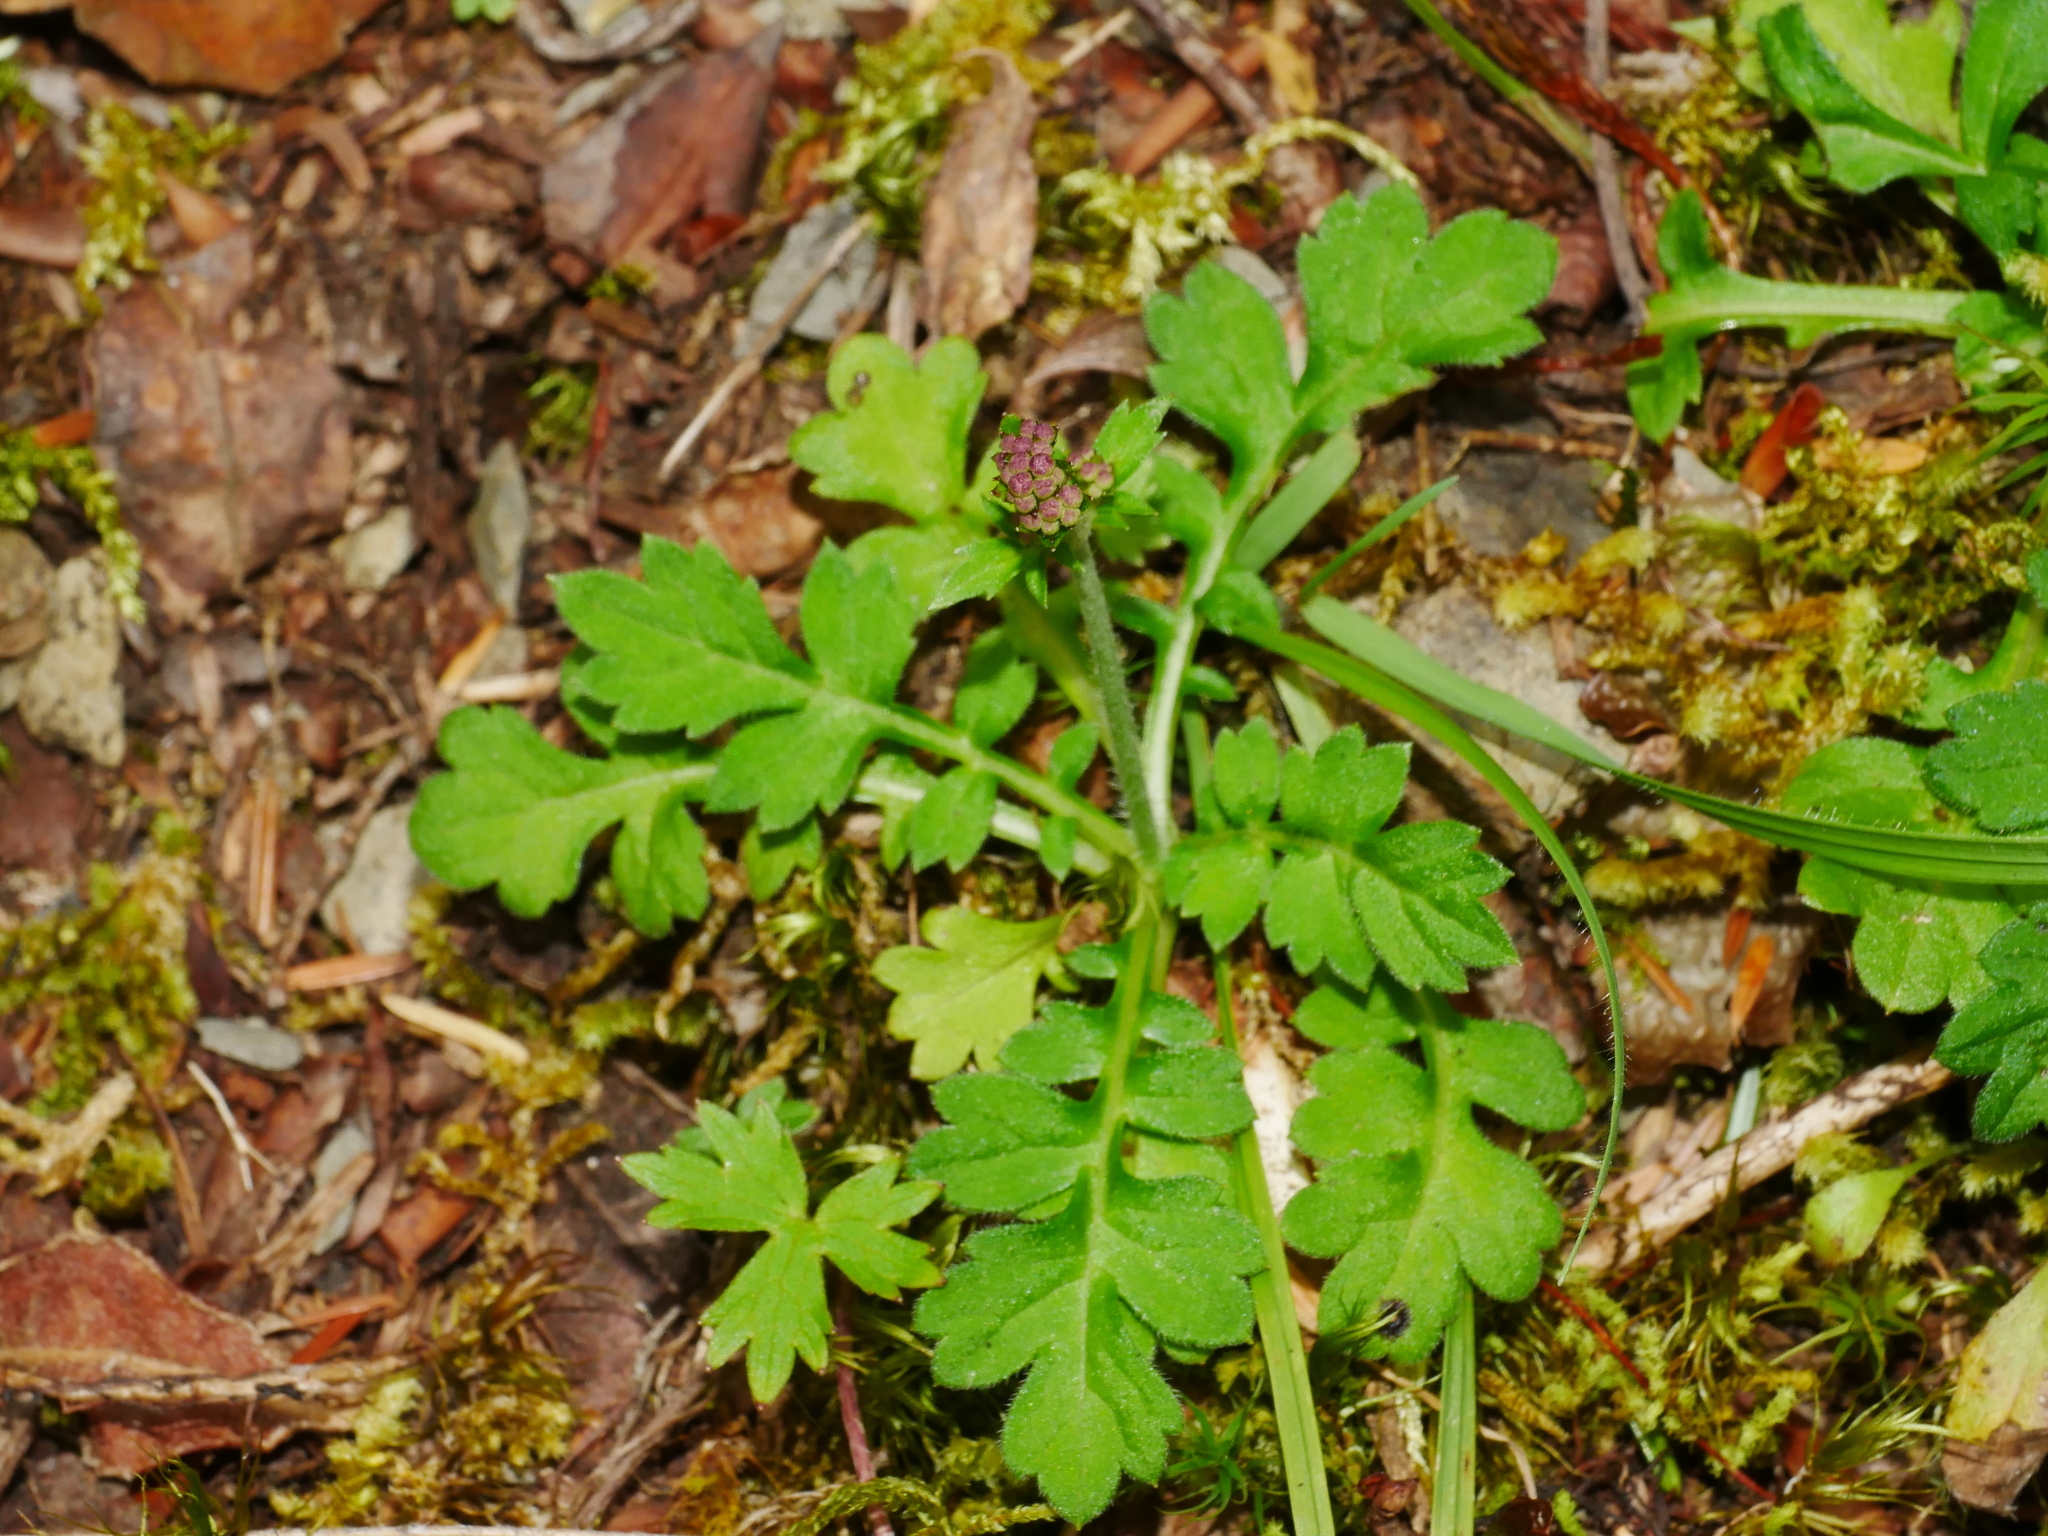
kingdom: Plantae
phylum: Tracheophyta
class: Magnoliopsida
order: Dipsacales
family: Caprifoliaceae
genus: Triplostegia
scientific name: Triplostegia glandulifera
